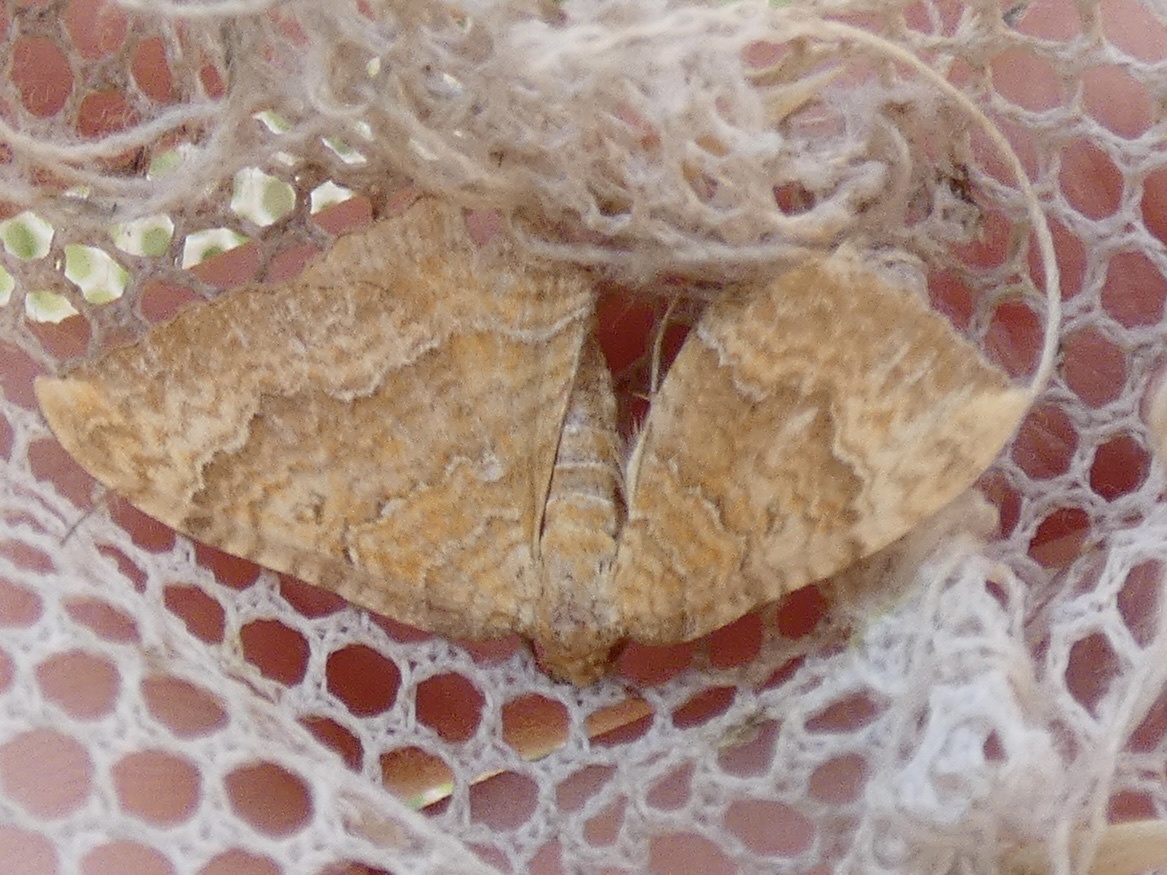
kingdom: Animalia
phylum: Arthropoda
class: Insecta
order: Lepidoptera
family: Geometridae
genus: Camptogramma
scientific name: Camptogramma bilineata
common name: Yellow shell
